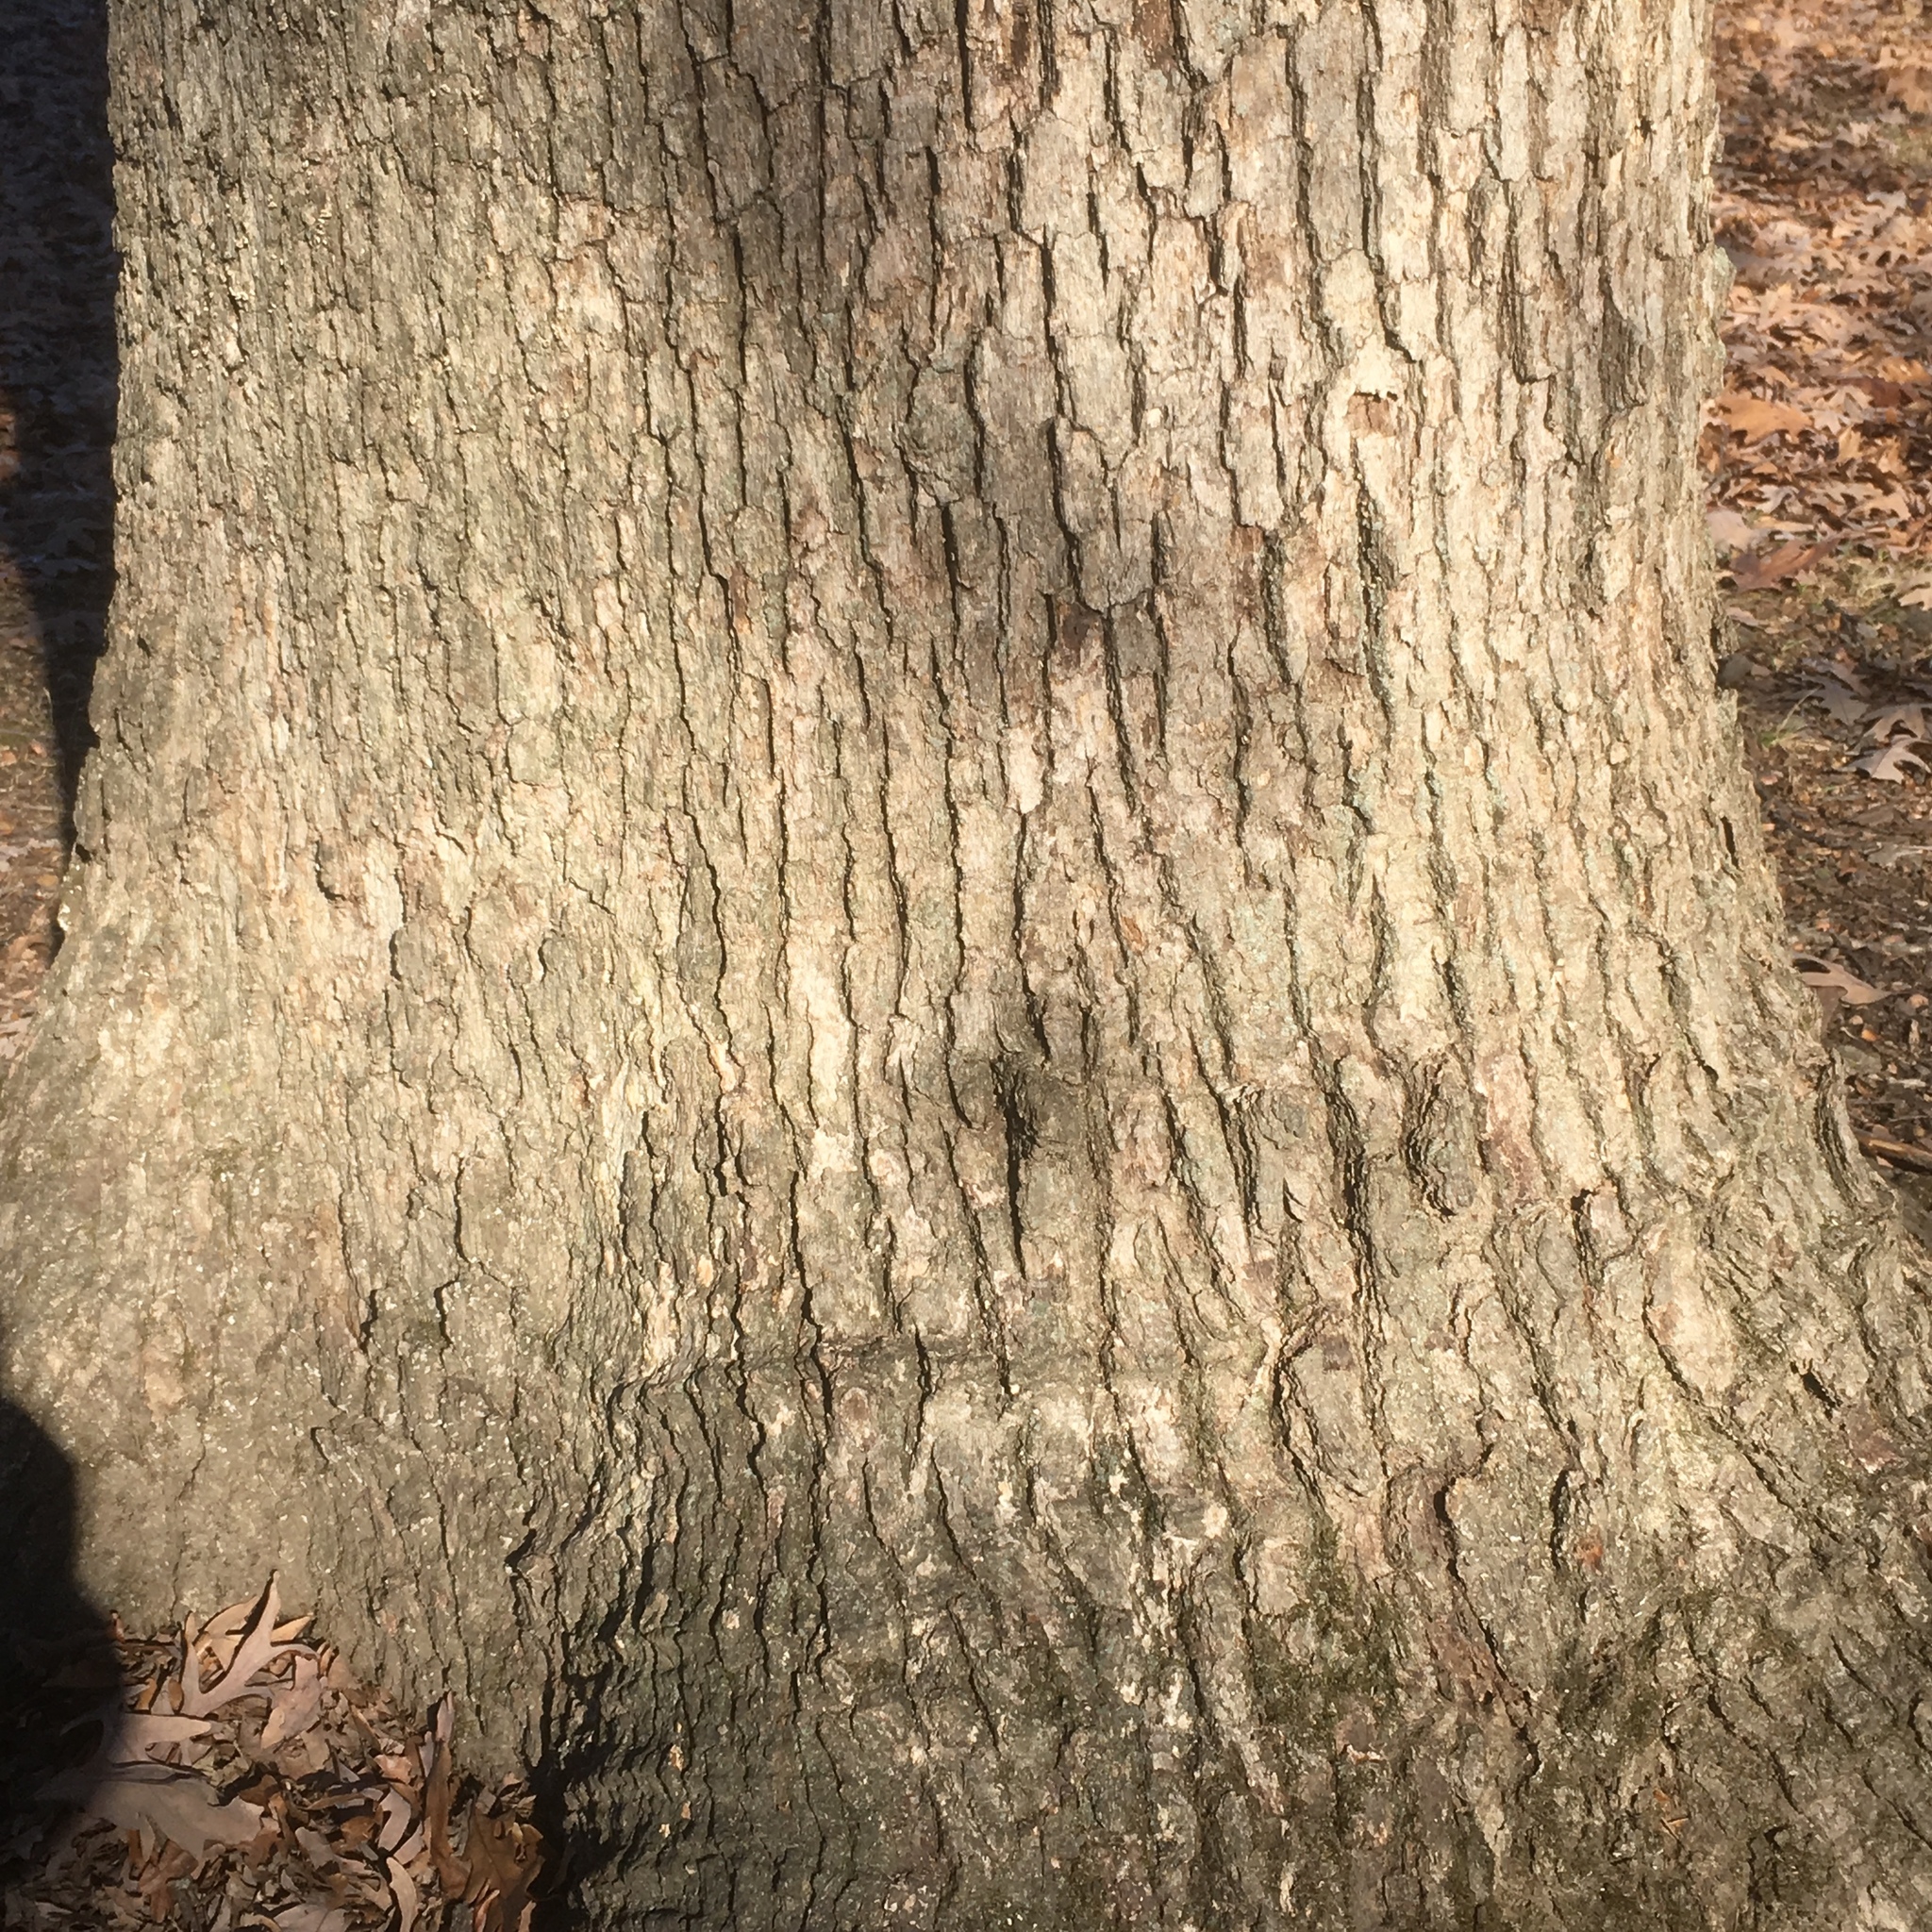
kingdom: Plantae
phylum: Tracheophyta
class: Magnoliopsida
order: Fagales
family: Fagaceae
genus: Quercus
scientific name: Quercus alba
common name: White oak
